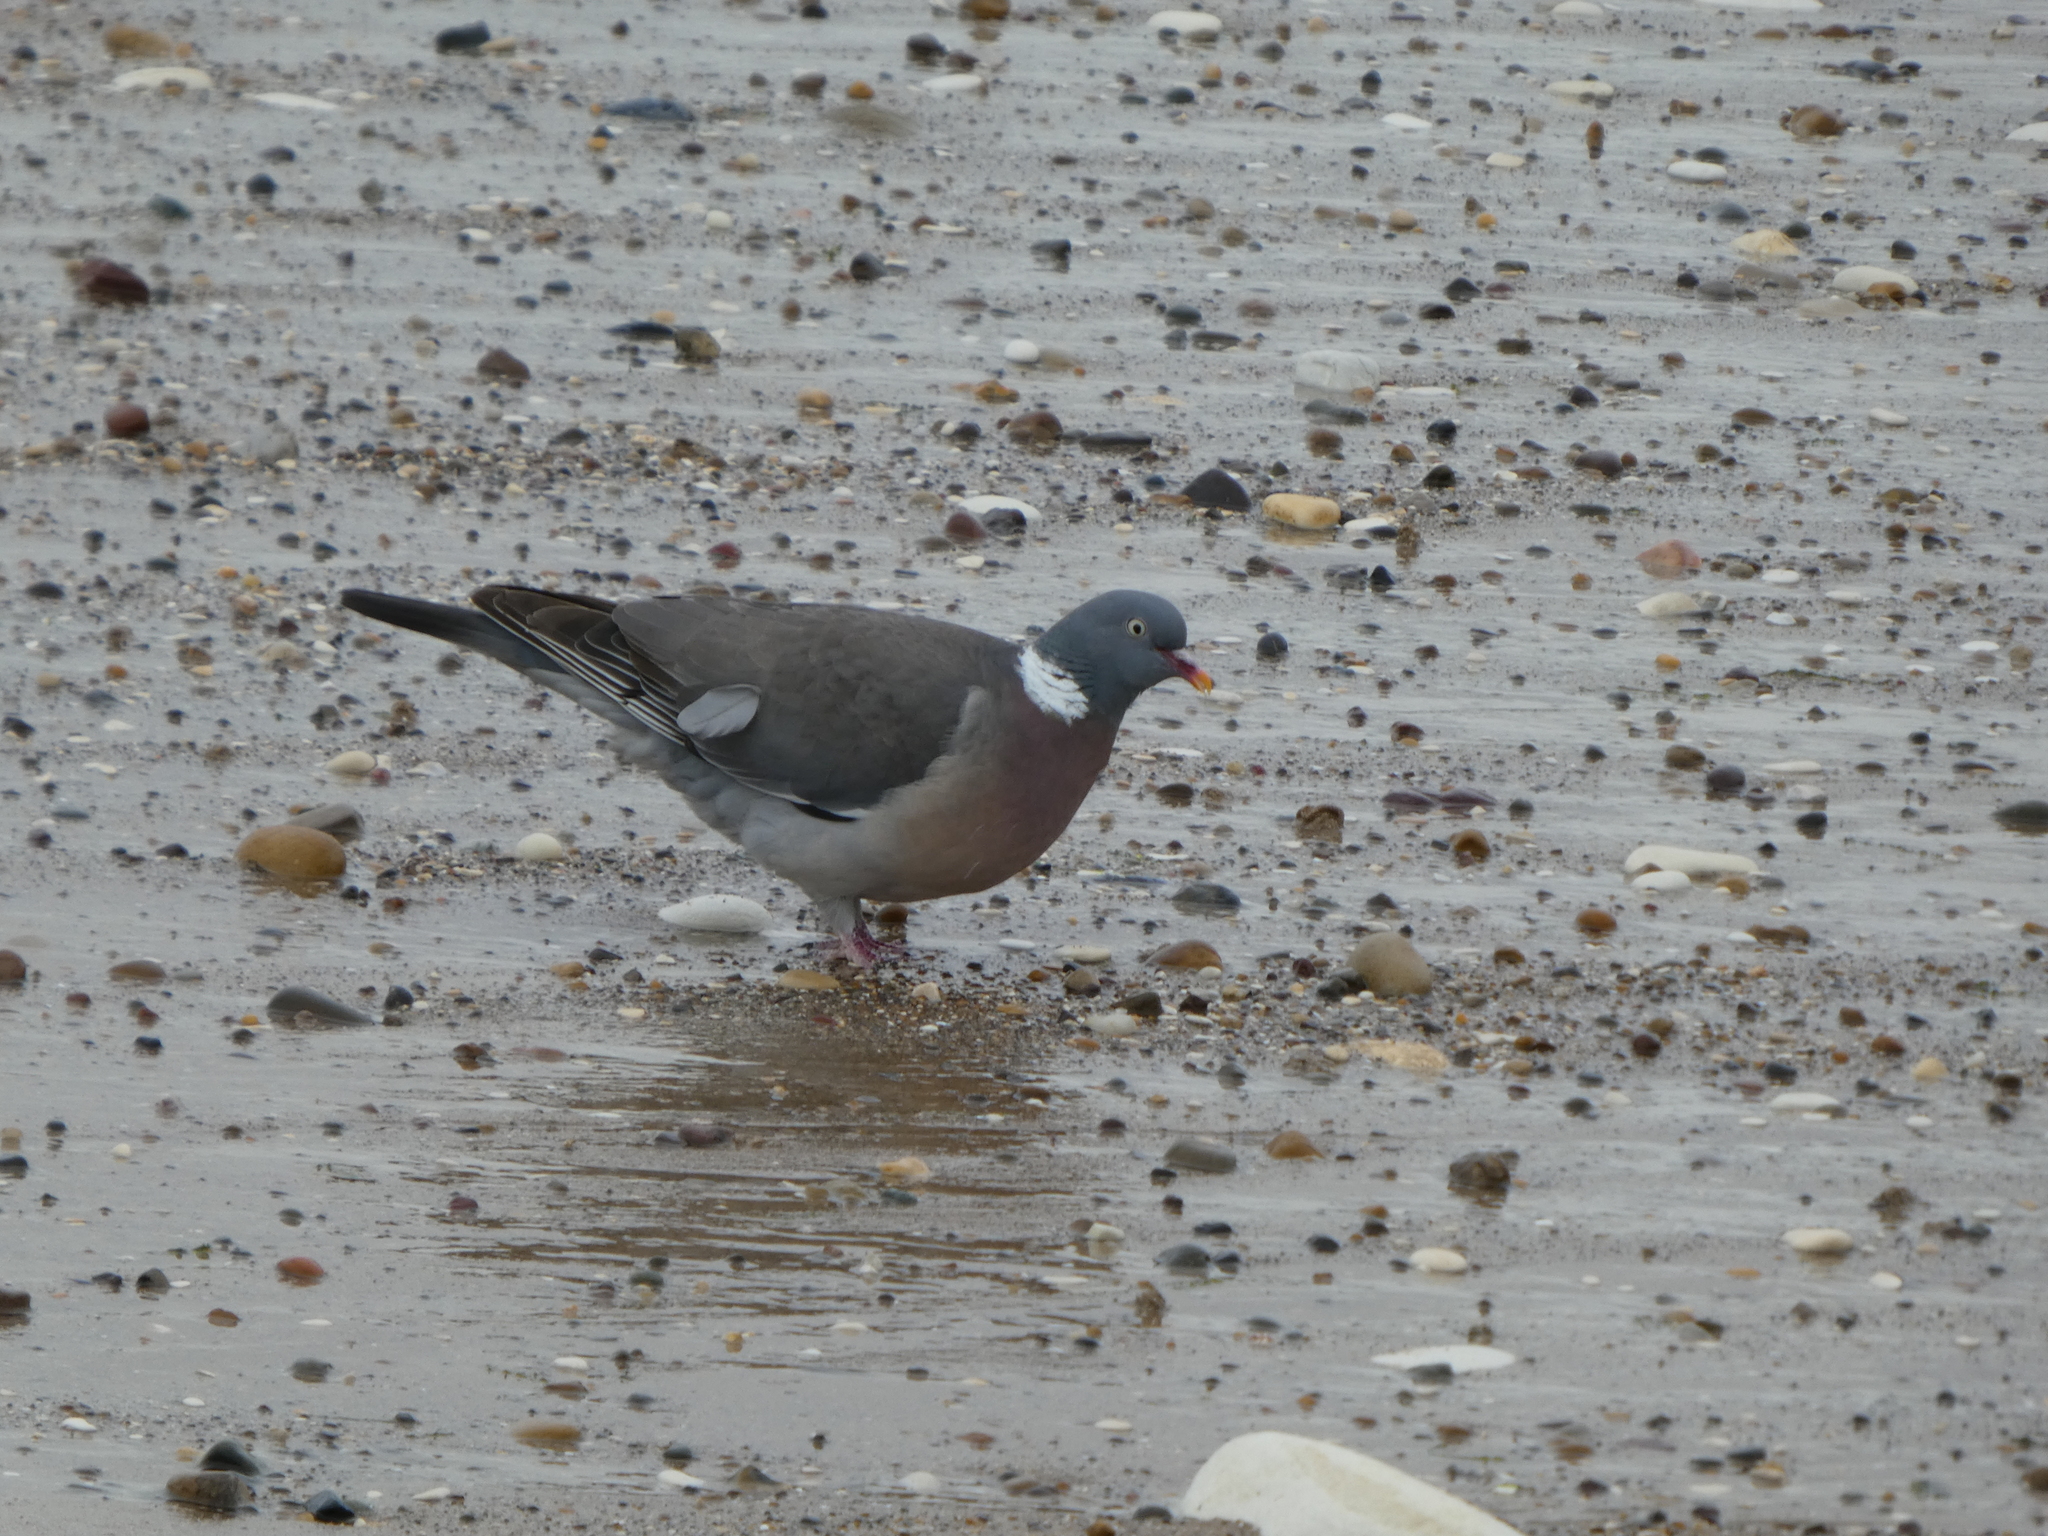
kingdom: Animalia
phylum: Chordata
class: Aves
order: Columbiformes
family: Columbidae
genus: Columba
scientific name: Columba palumbus
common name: Common wood pigeon
